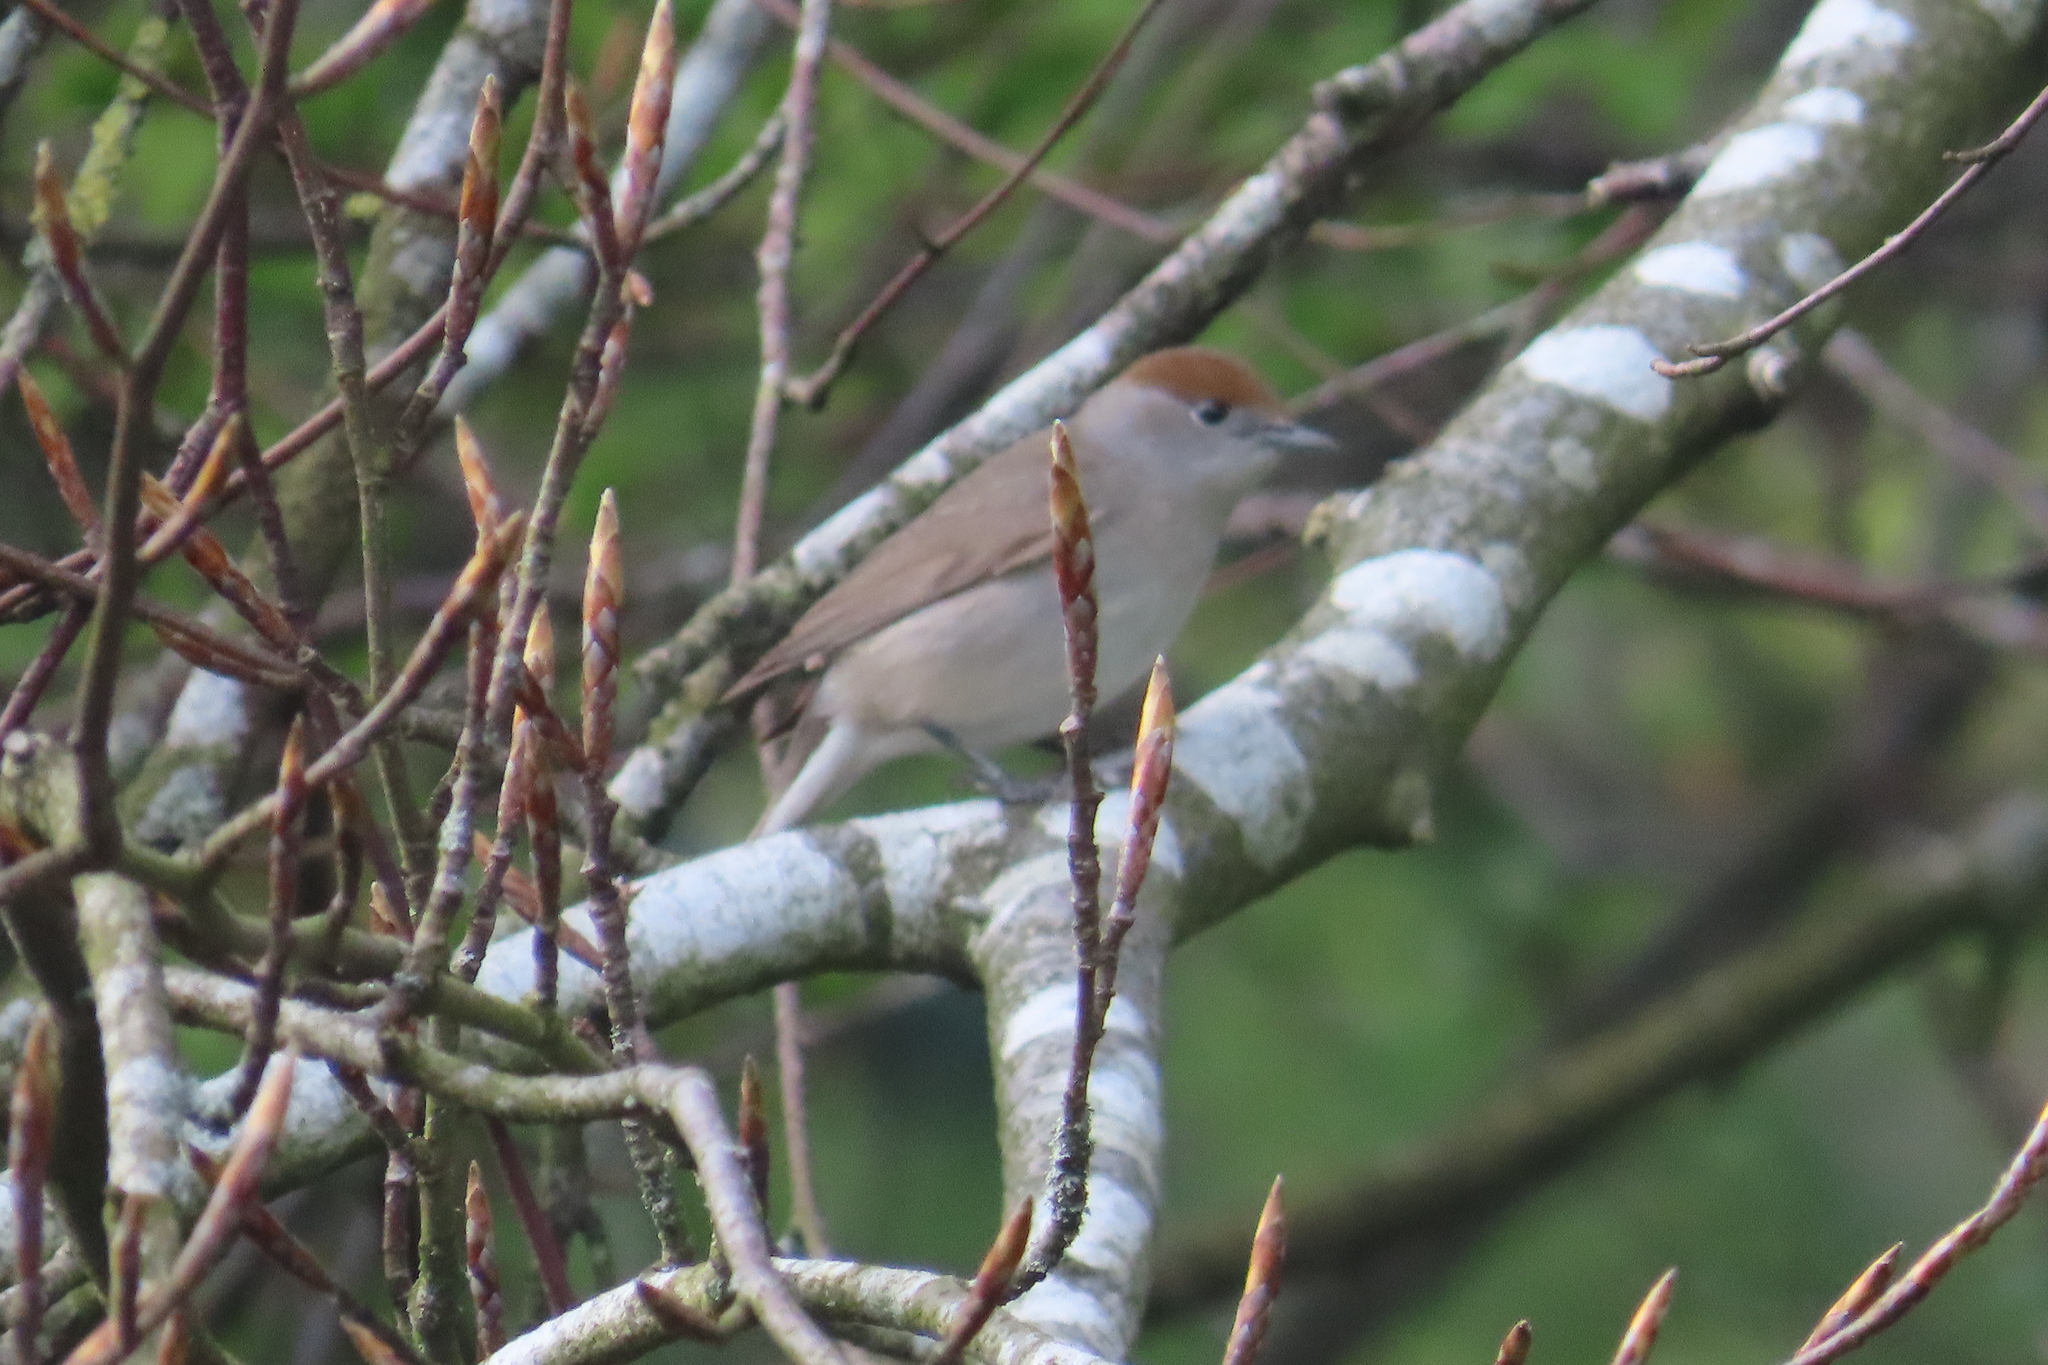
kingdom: Animalia
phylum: Chordata
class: Aves
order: Passeriformes
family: Sylviidae
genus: Sylvia
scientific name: Sylvia atricapilla
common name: Eurasian blackcap
